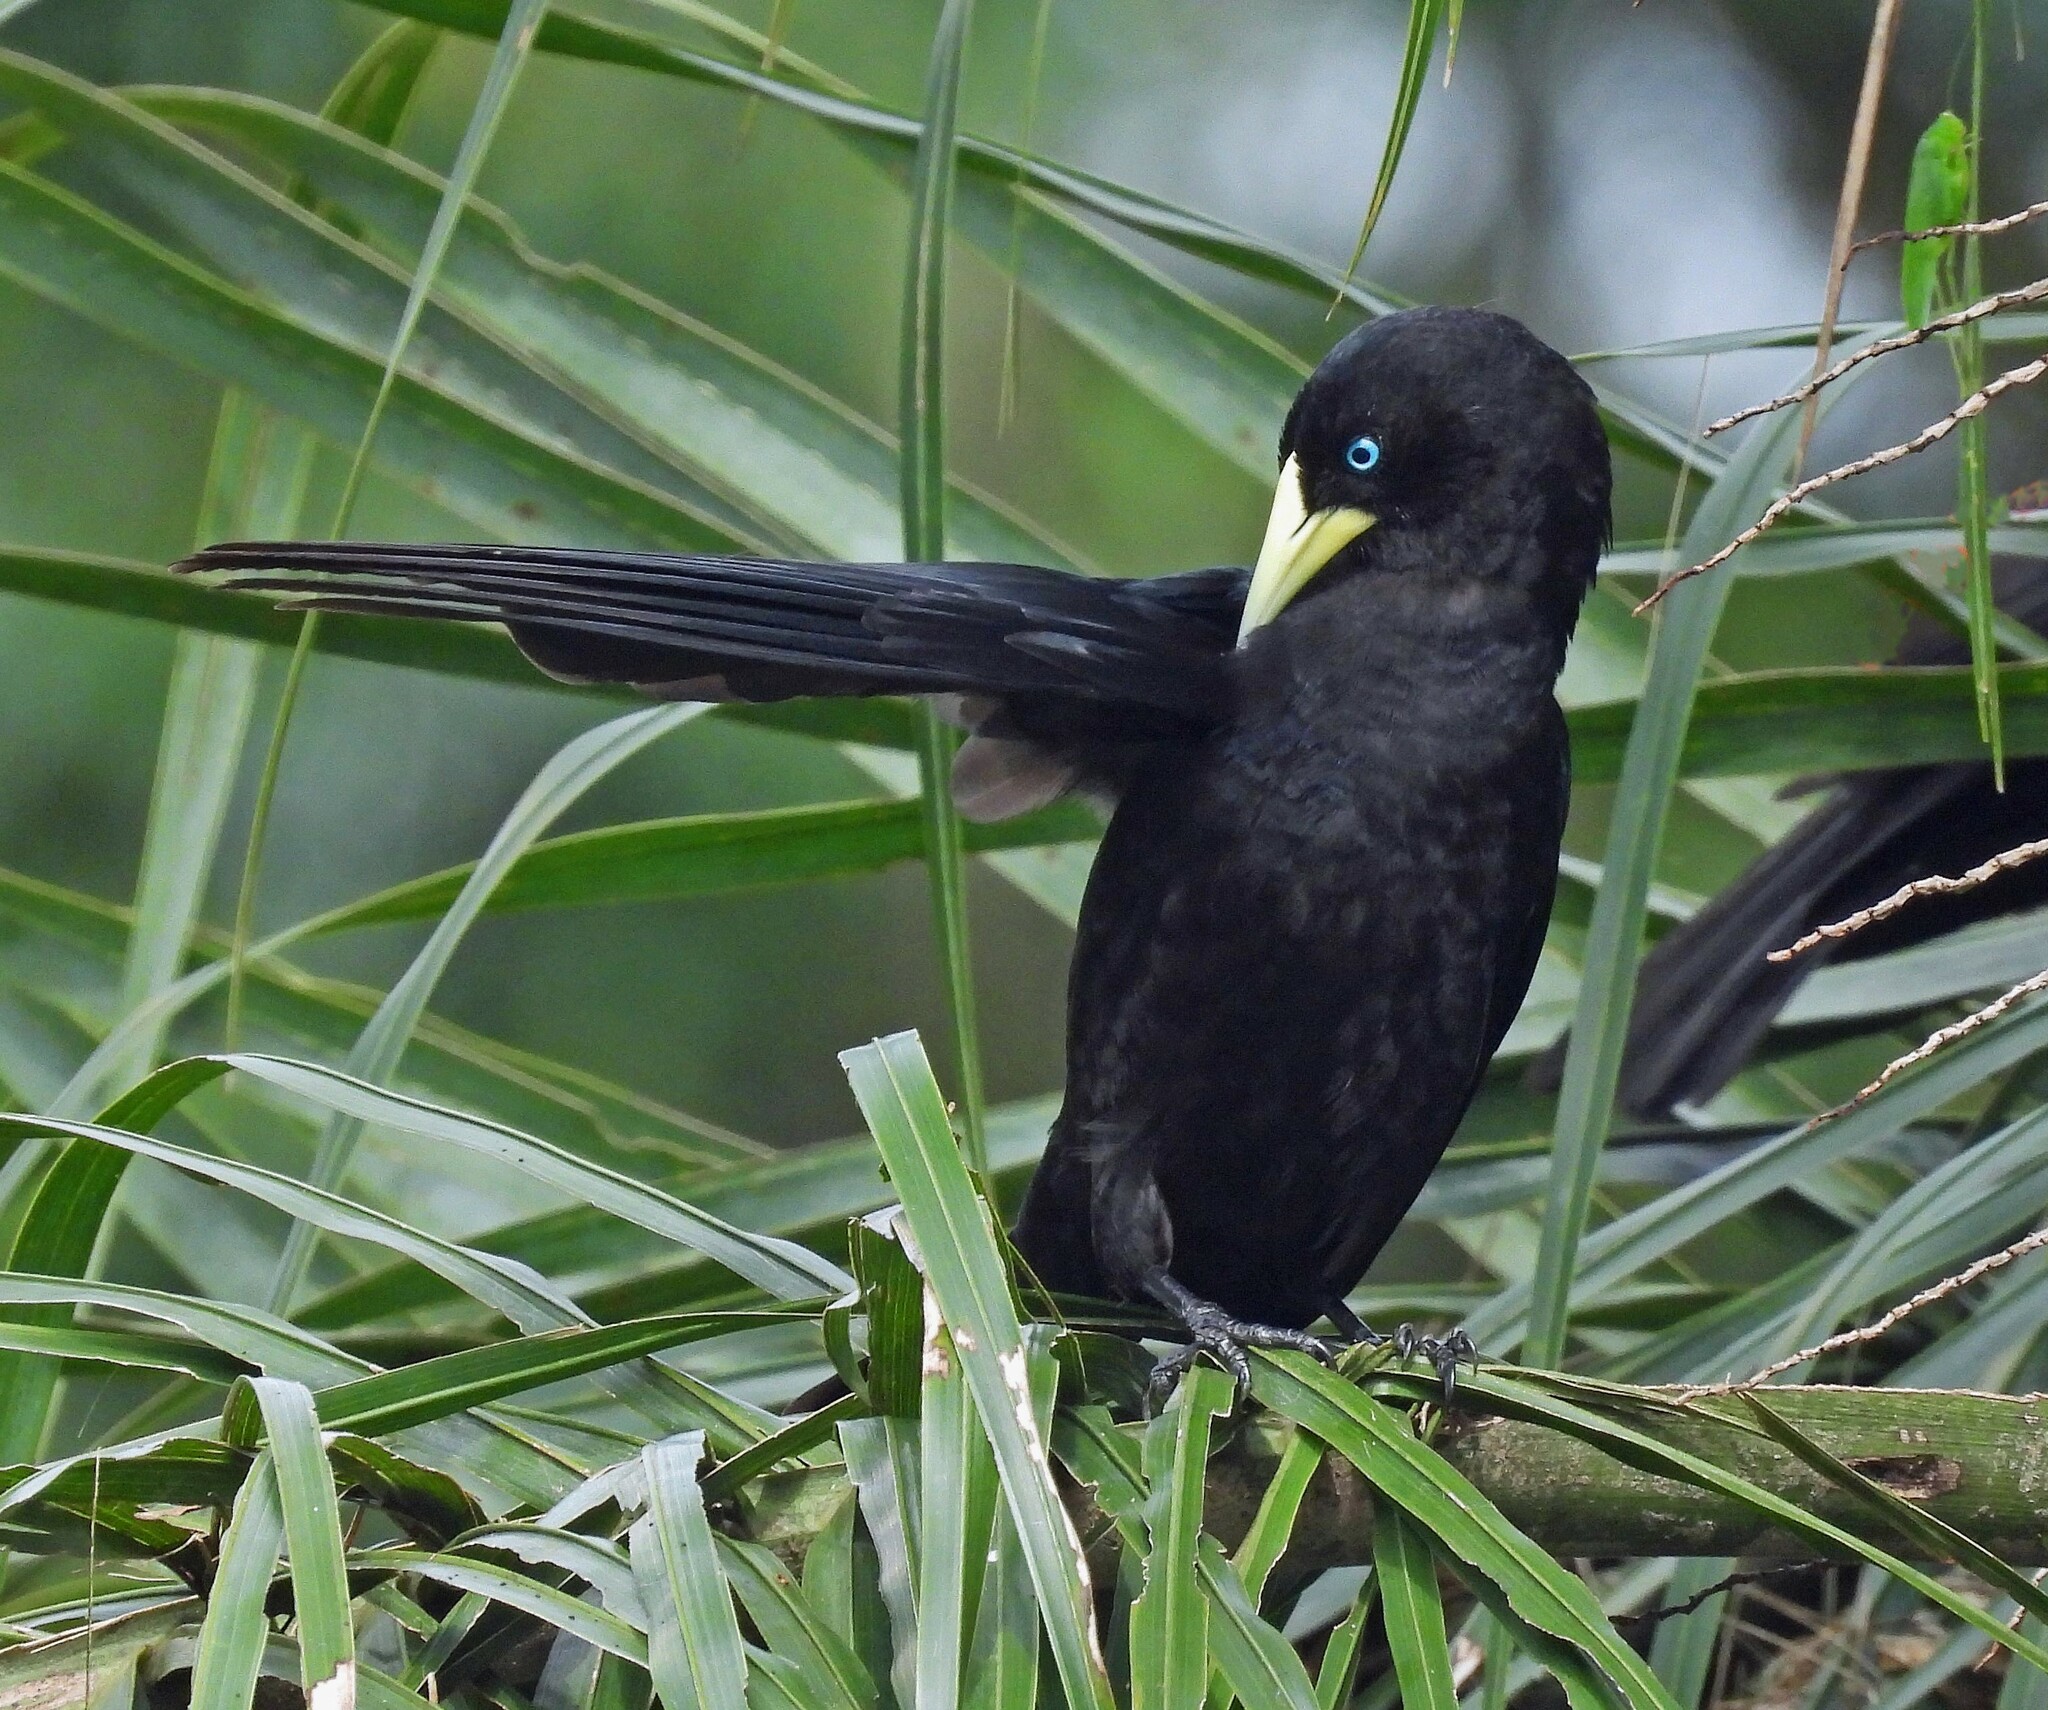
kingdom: Animalia
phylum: Chordata
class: Aves
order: Passeriformes
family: Icteridae
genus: Cacicus
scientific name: Cacicus haemorrhous
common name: Red-rumped cacique
